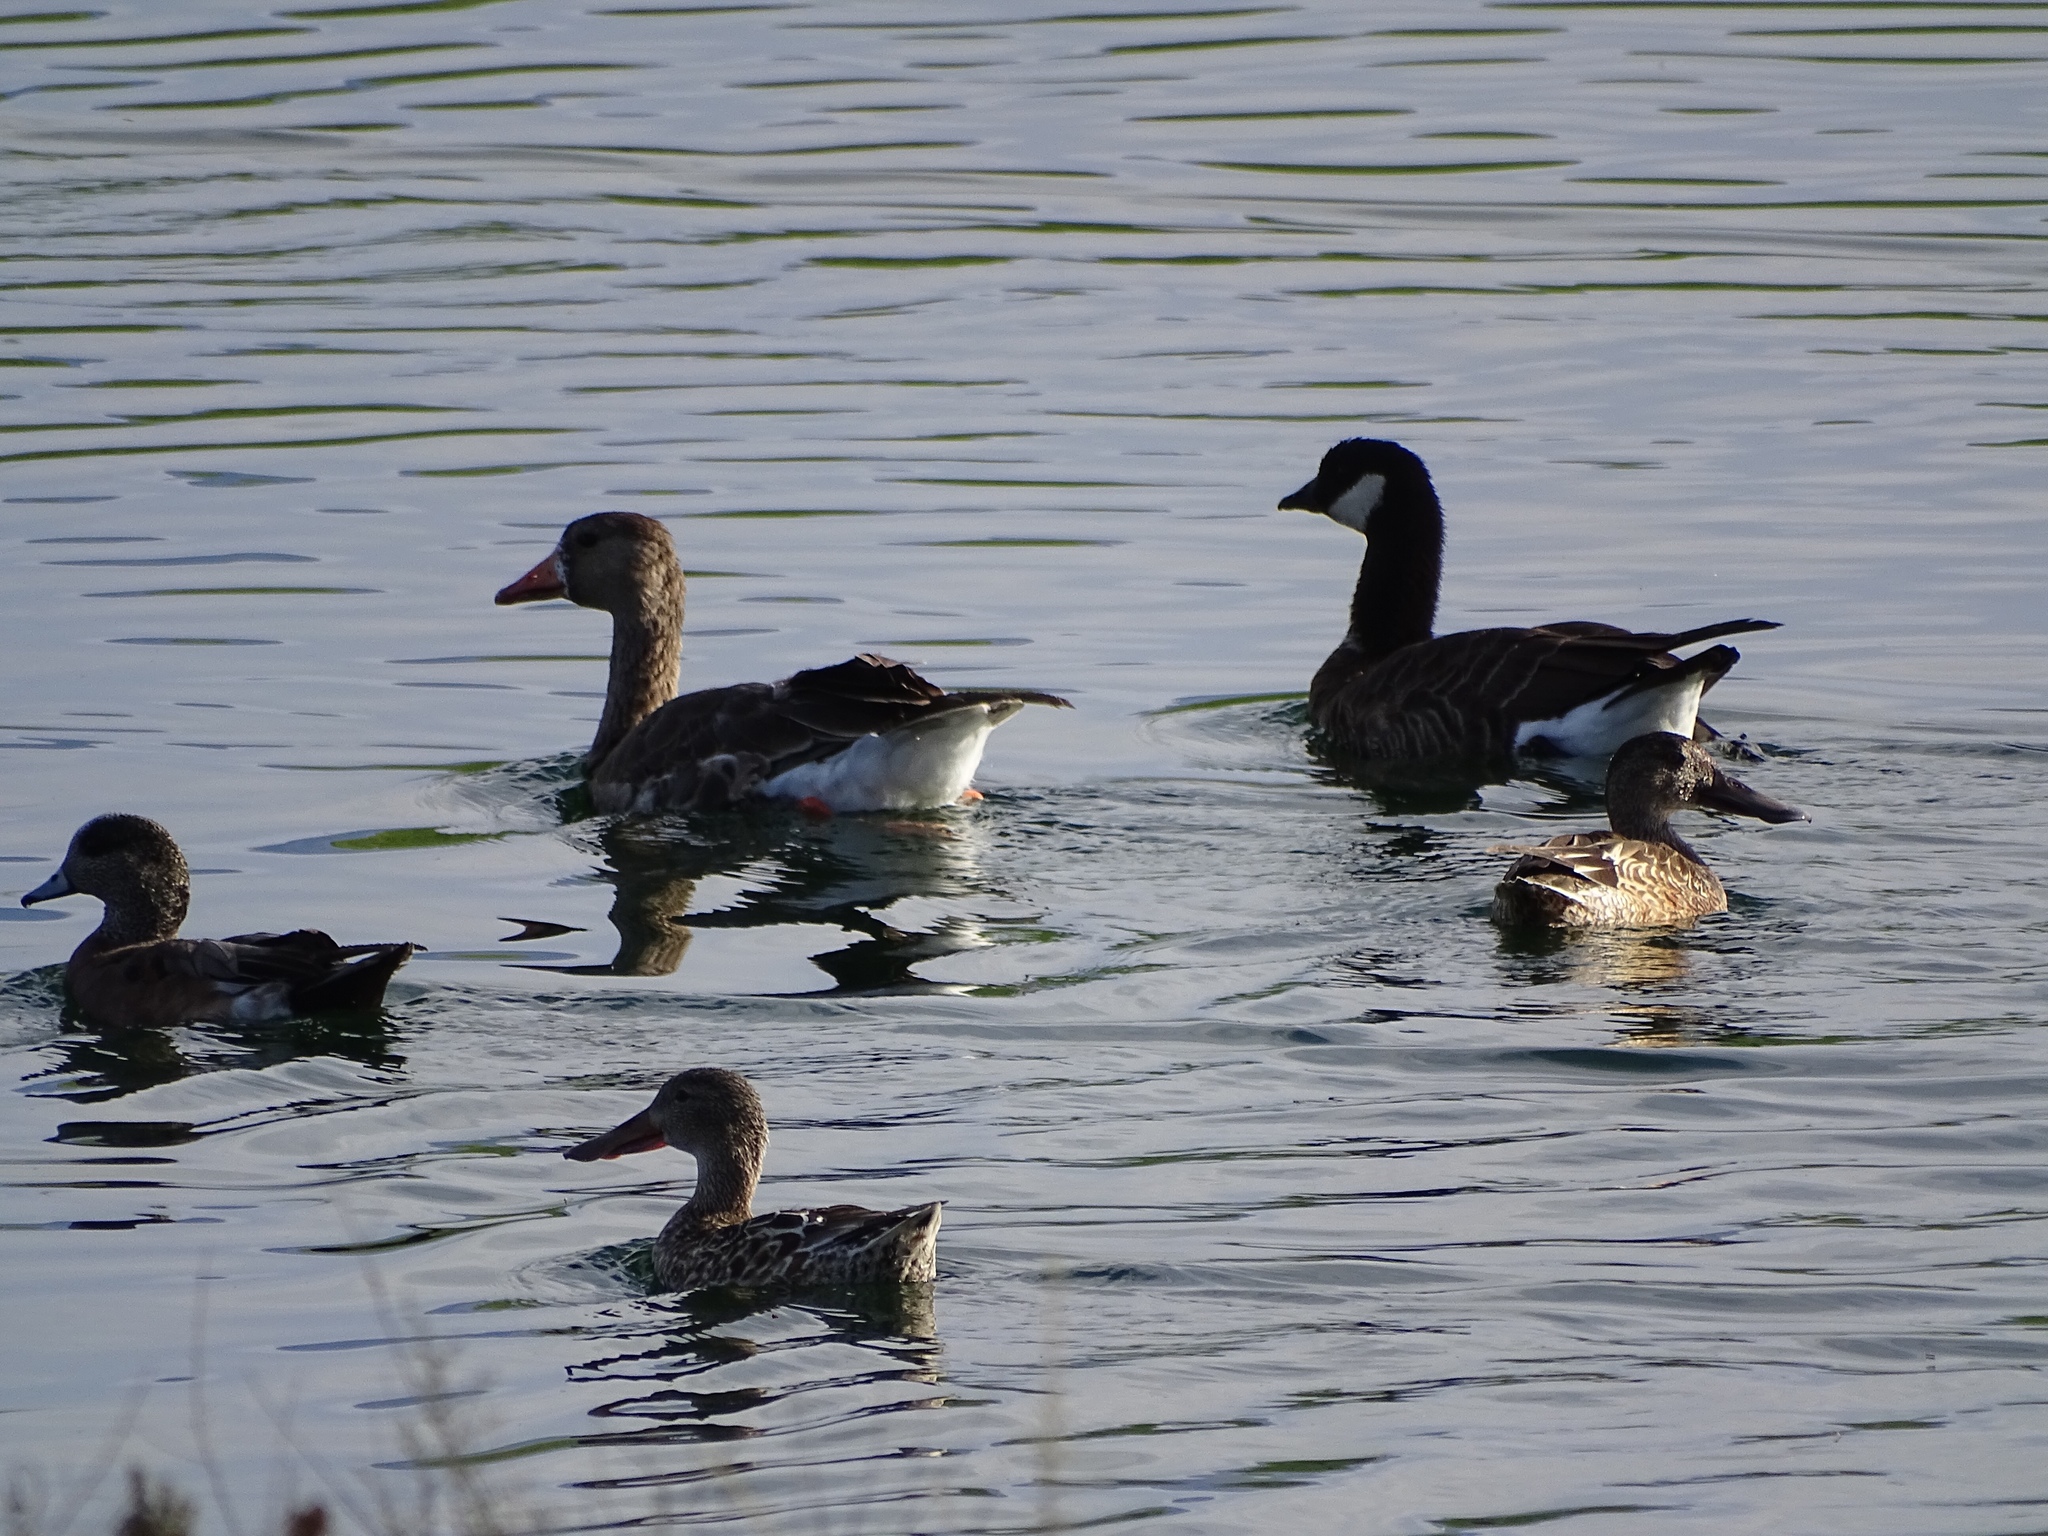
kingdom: Animalia
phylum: Chordata
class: Aves
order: Anseriformes
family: Anatidae
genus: Anser
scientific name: Anser albifrons
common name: Greater white-fronted goose
